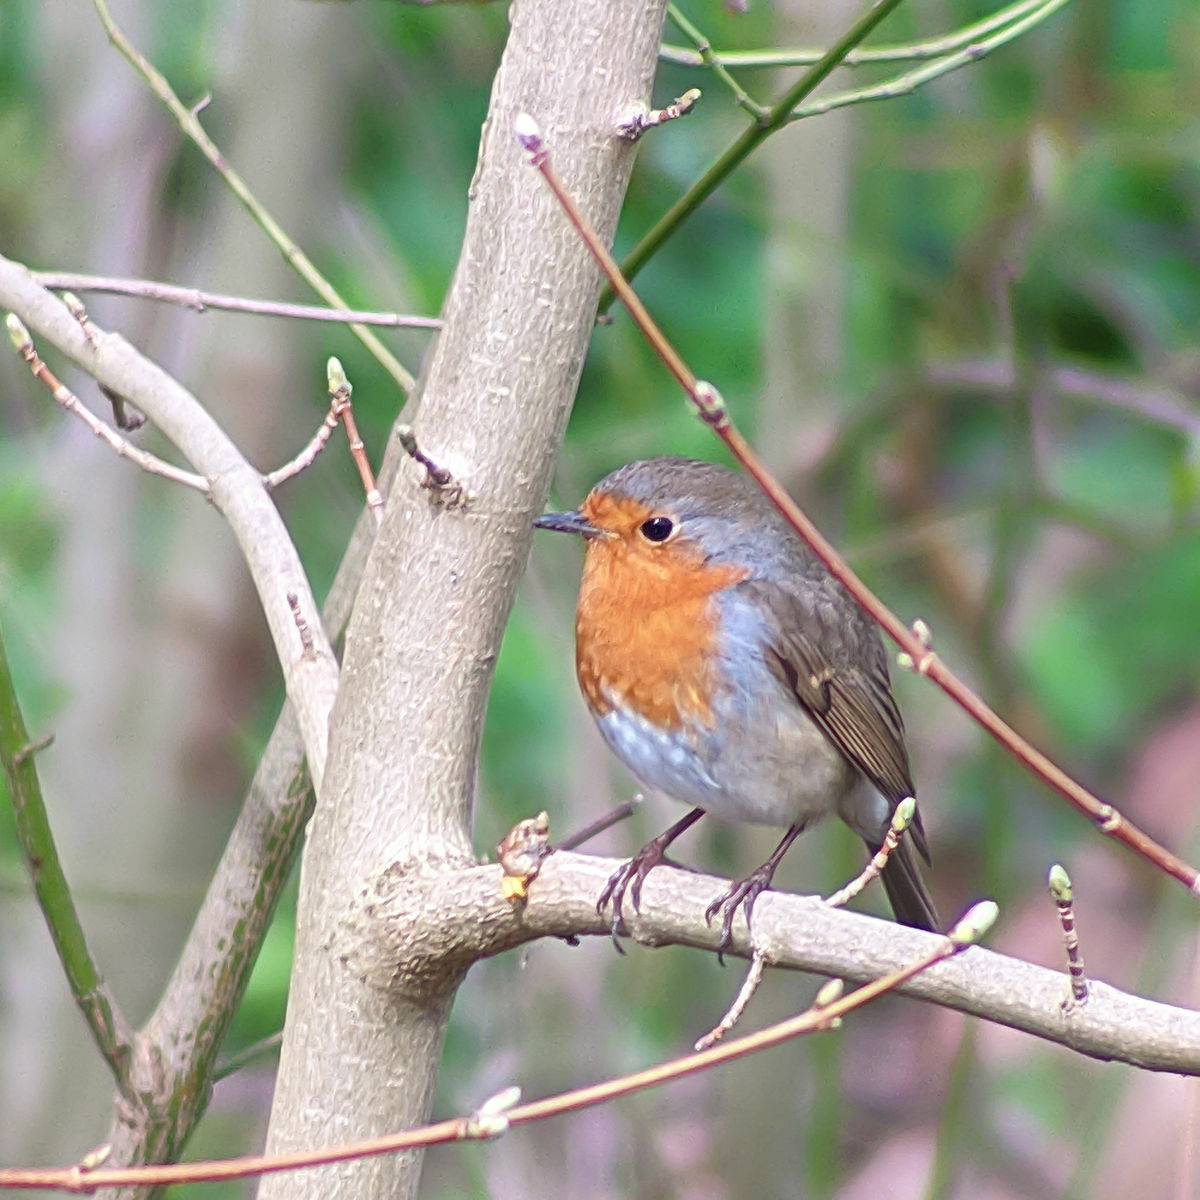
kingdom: Animalia
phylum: Chordata
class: Aves
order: Passeriformes
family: Muscicapidae
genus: Erithacus
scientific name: Erithacus rubecula
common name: European robin
